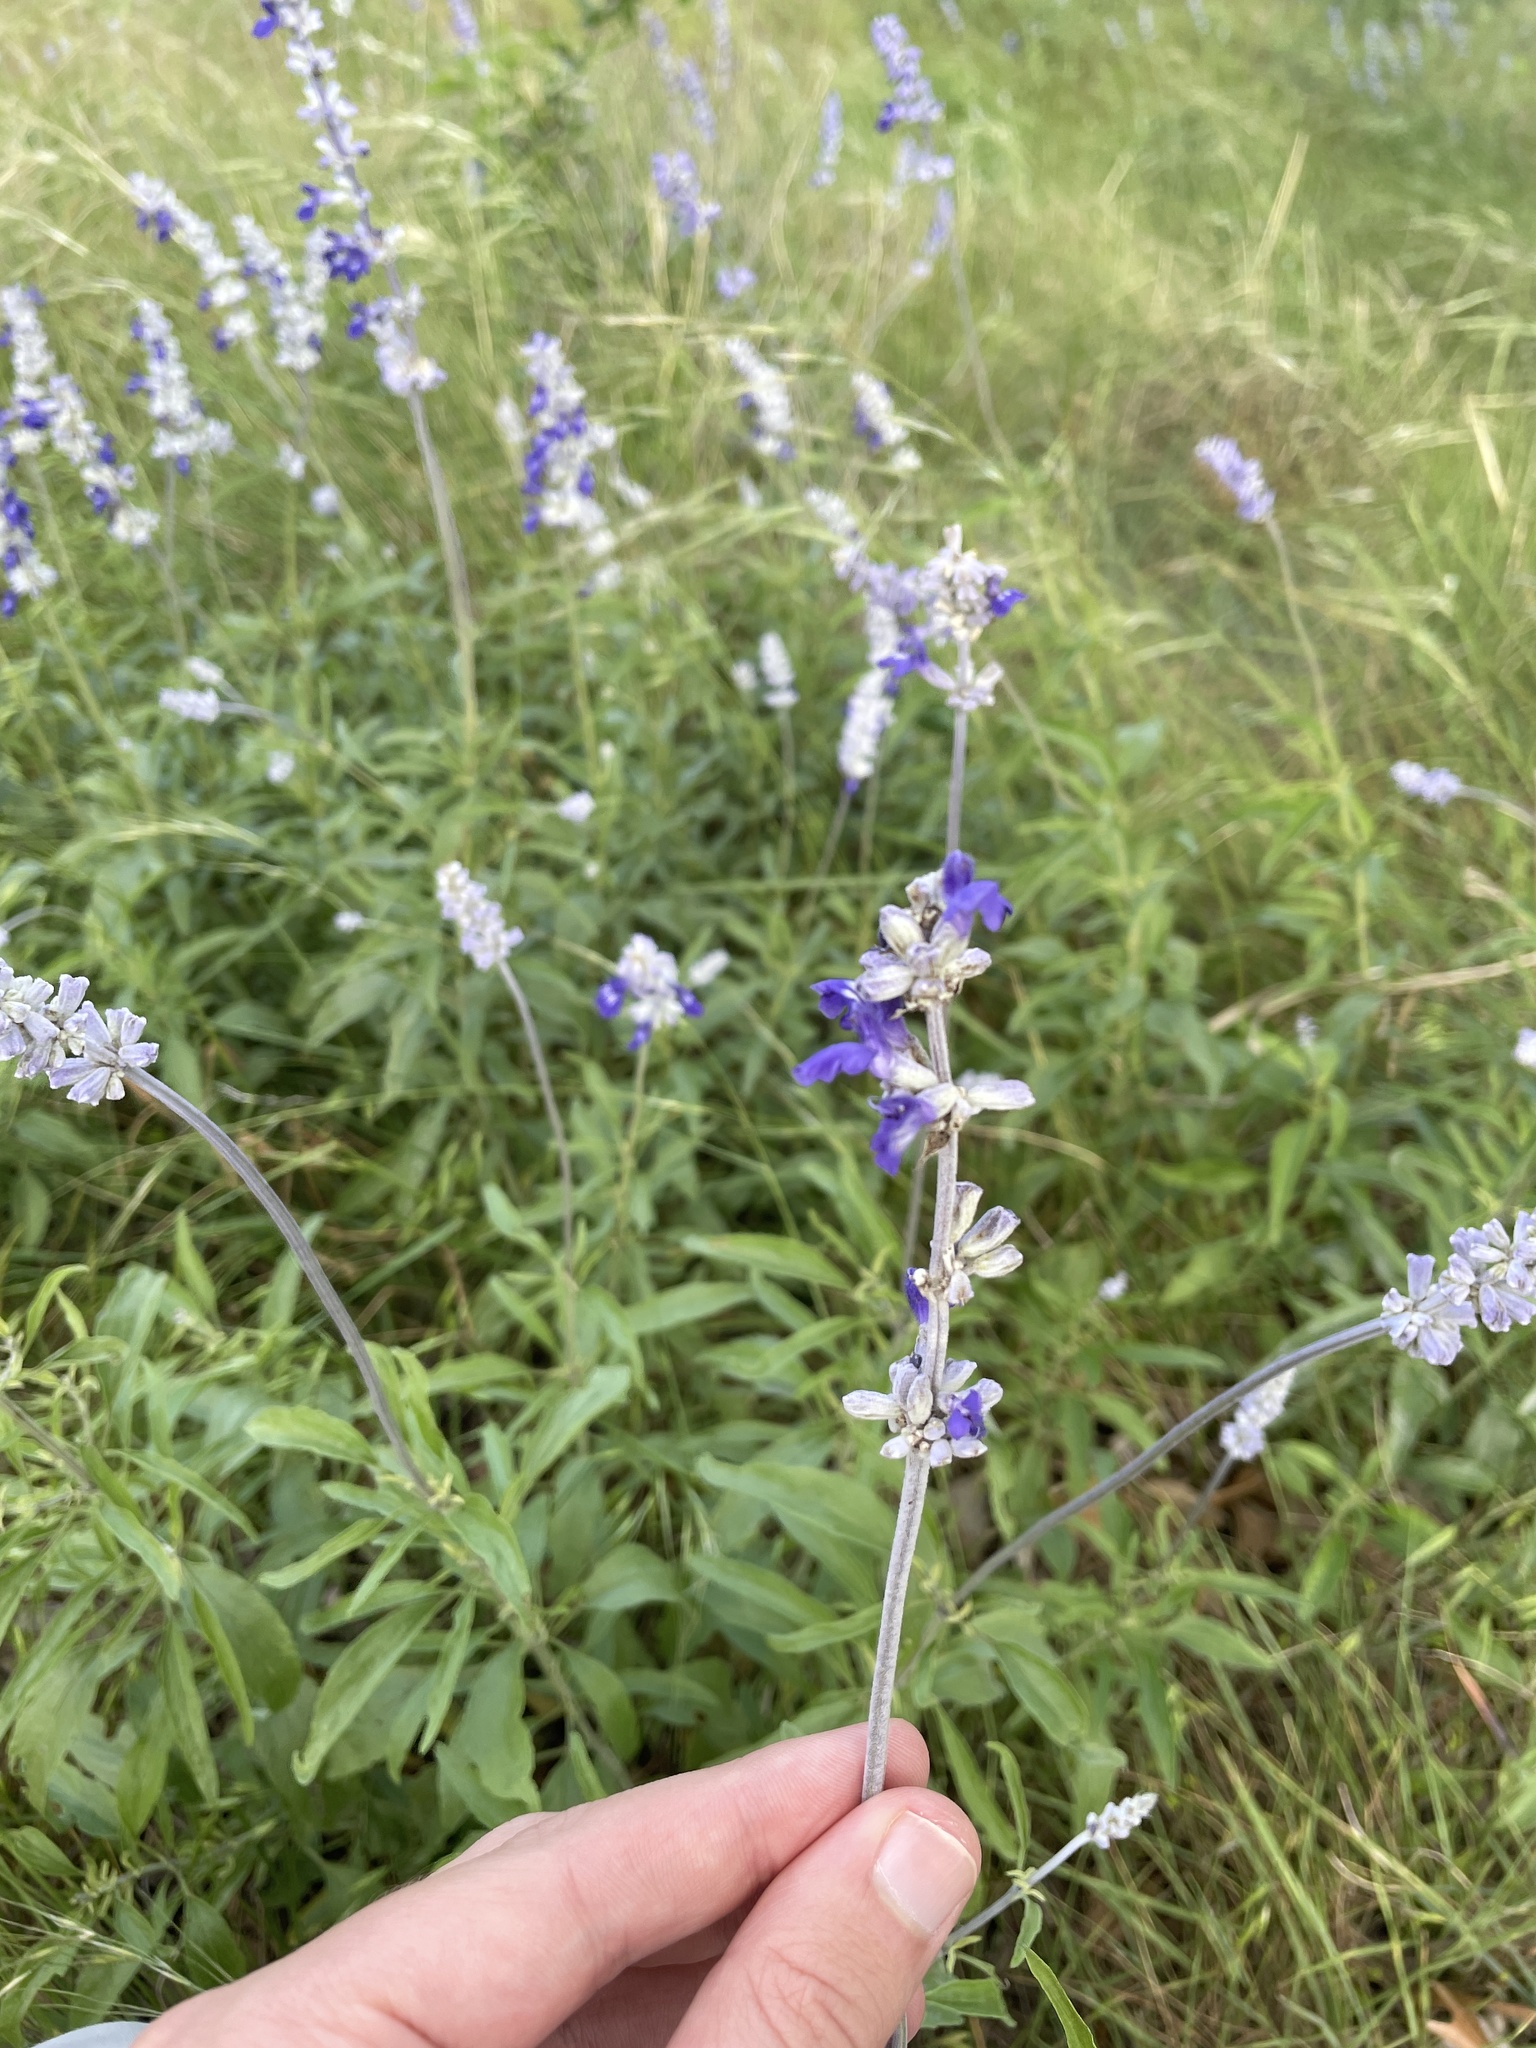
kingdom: Plantae
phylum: Tracheophyta
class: Magnoliopsida
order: Lamiales
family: Lamiaceae
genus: Salvia
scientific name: Salvia farinacea
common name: Mealy sage
